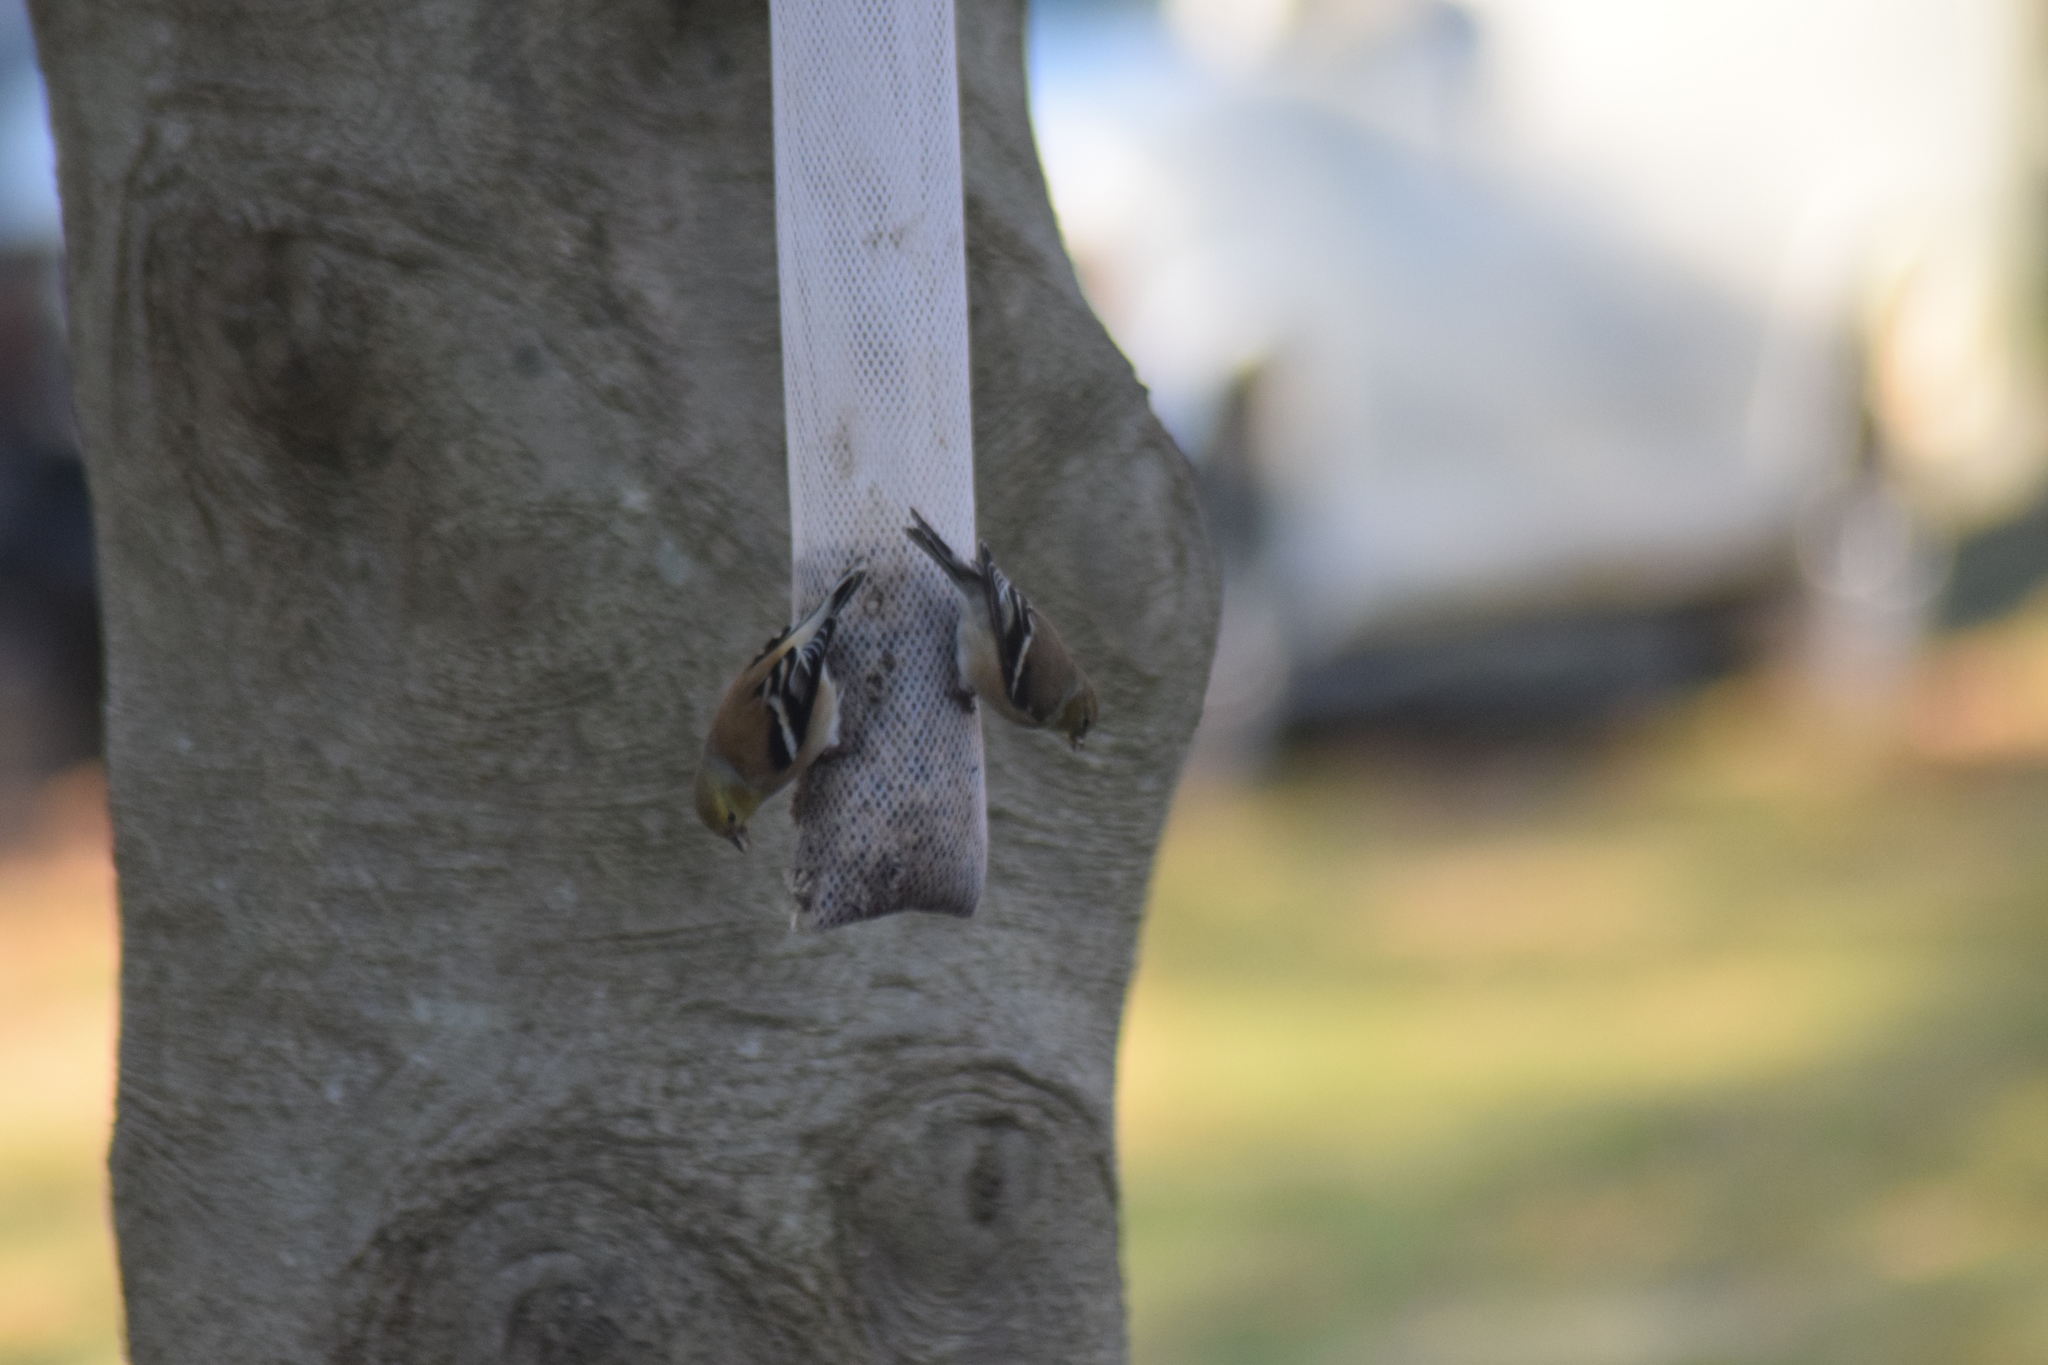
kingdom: Animalia
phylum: Chordata
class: Aves
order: Passeriformes
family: Fringillidae
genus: Spinus
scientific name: Spinus tristis
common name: American goldfinch
